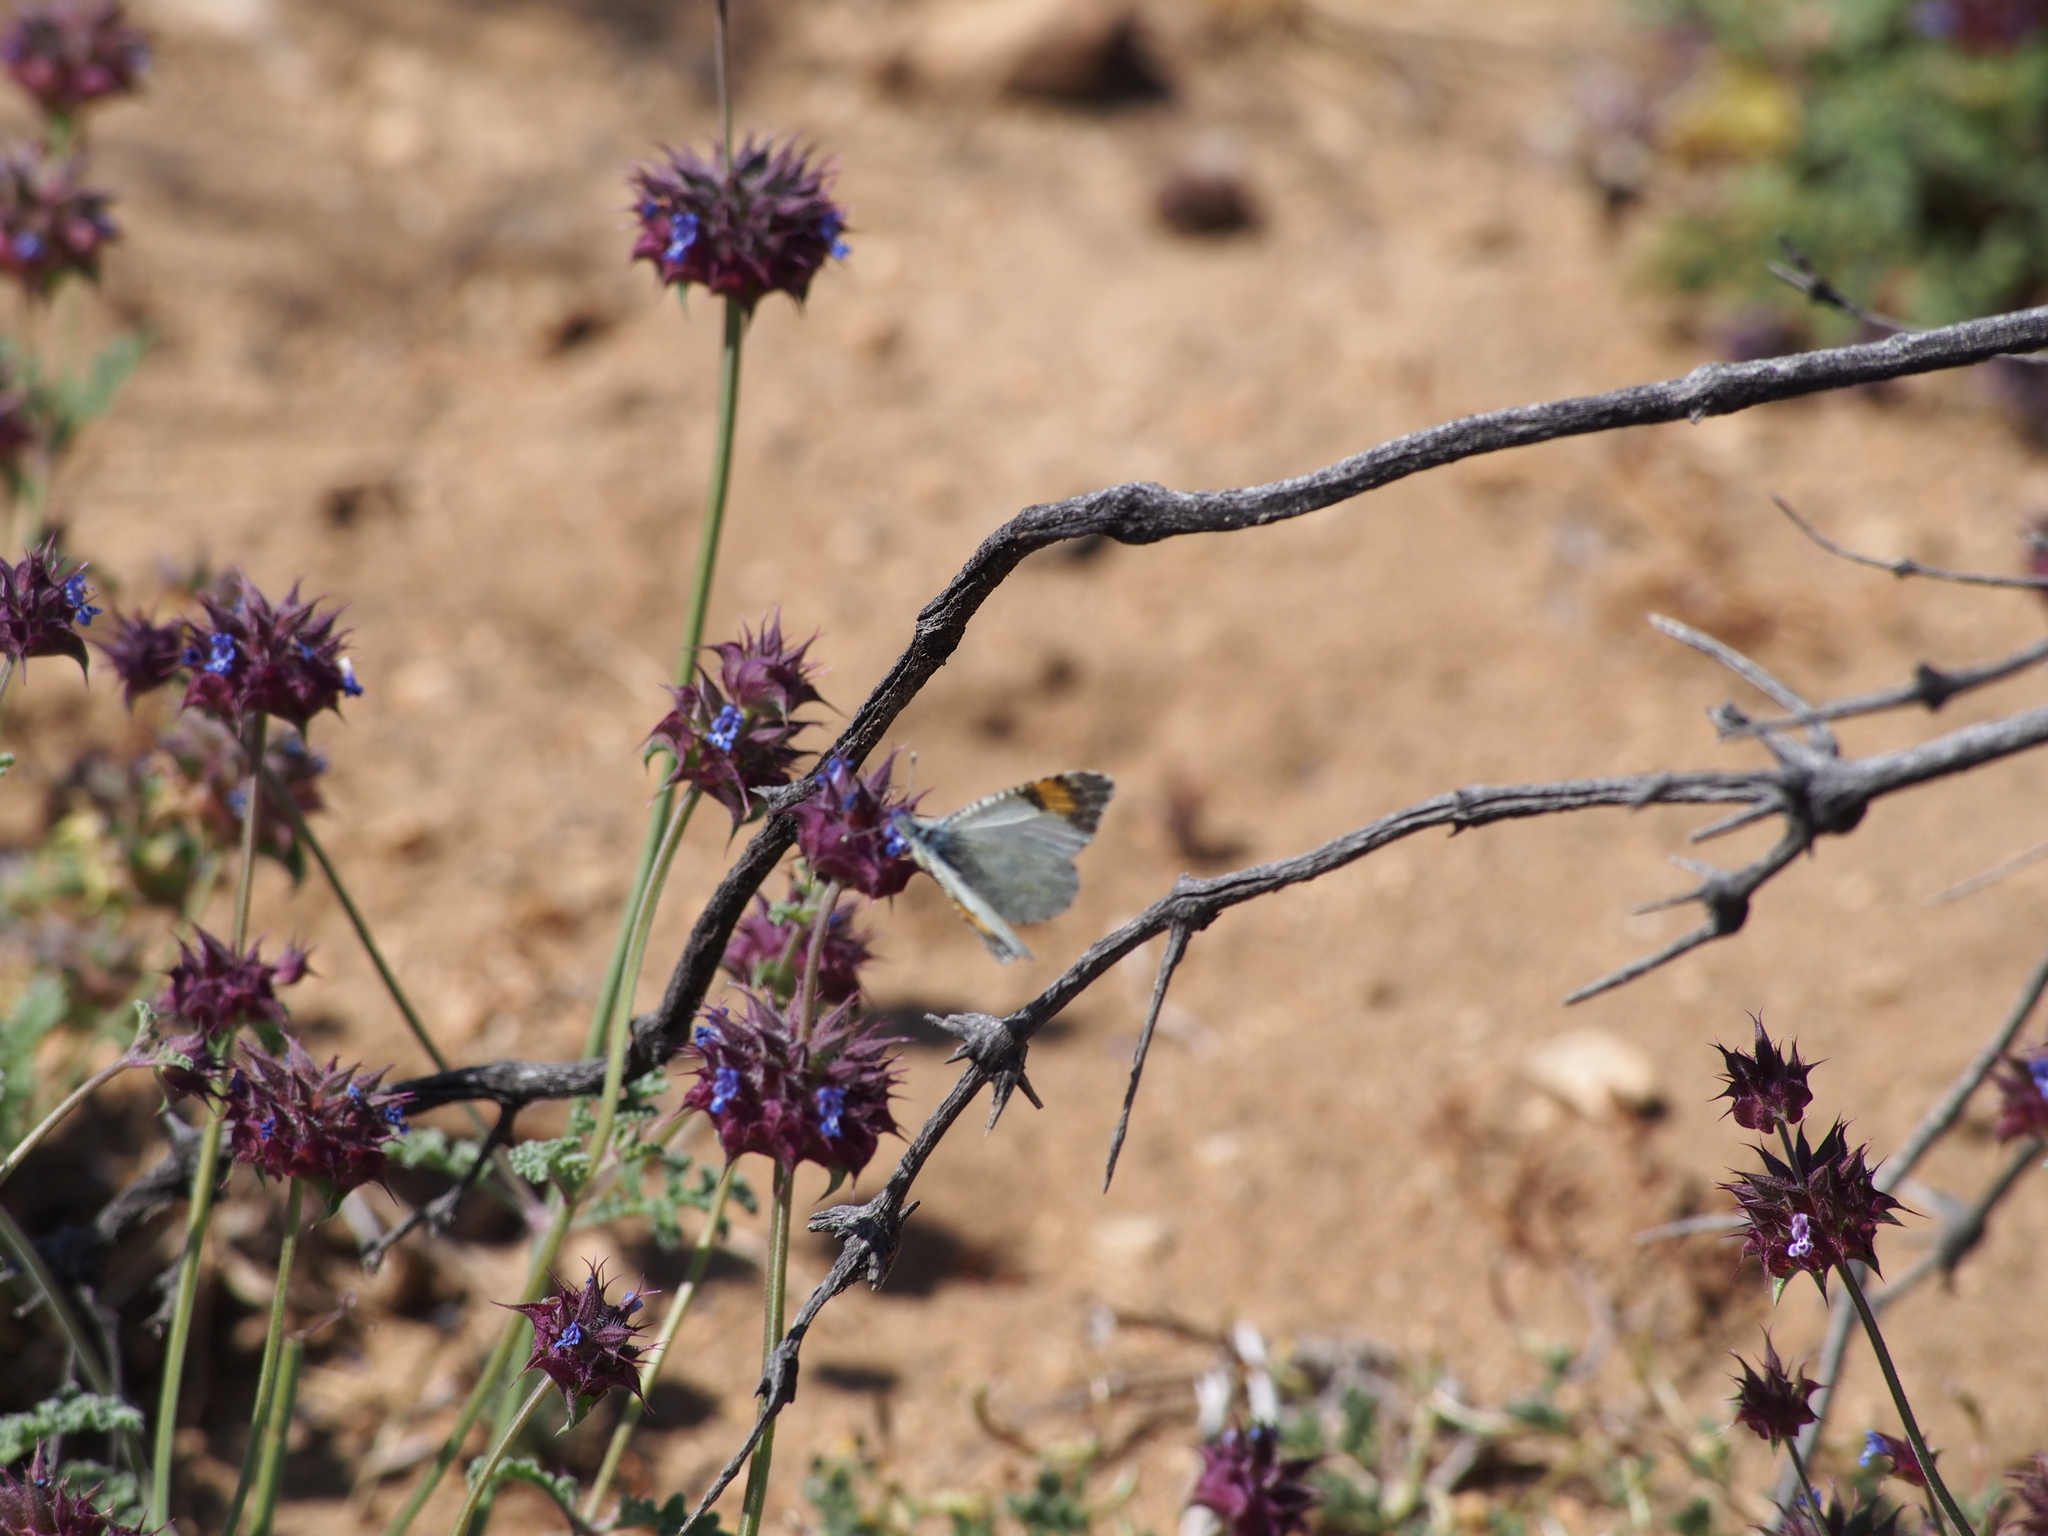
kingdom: Animalia
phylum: Arthropoda
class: Insecta
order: Lepidoptera
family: Pieridae
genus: Anthocharis
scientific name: Anthocharis cethura
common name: Desert orangetip
